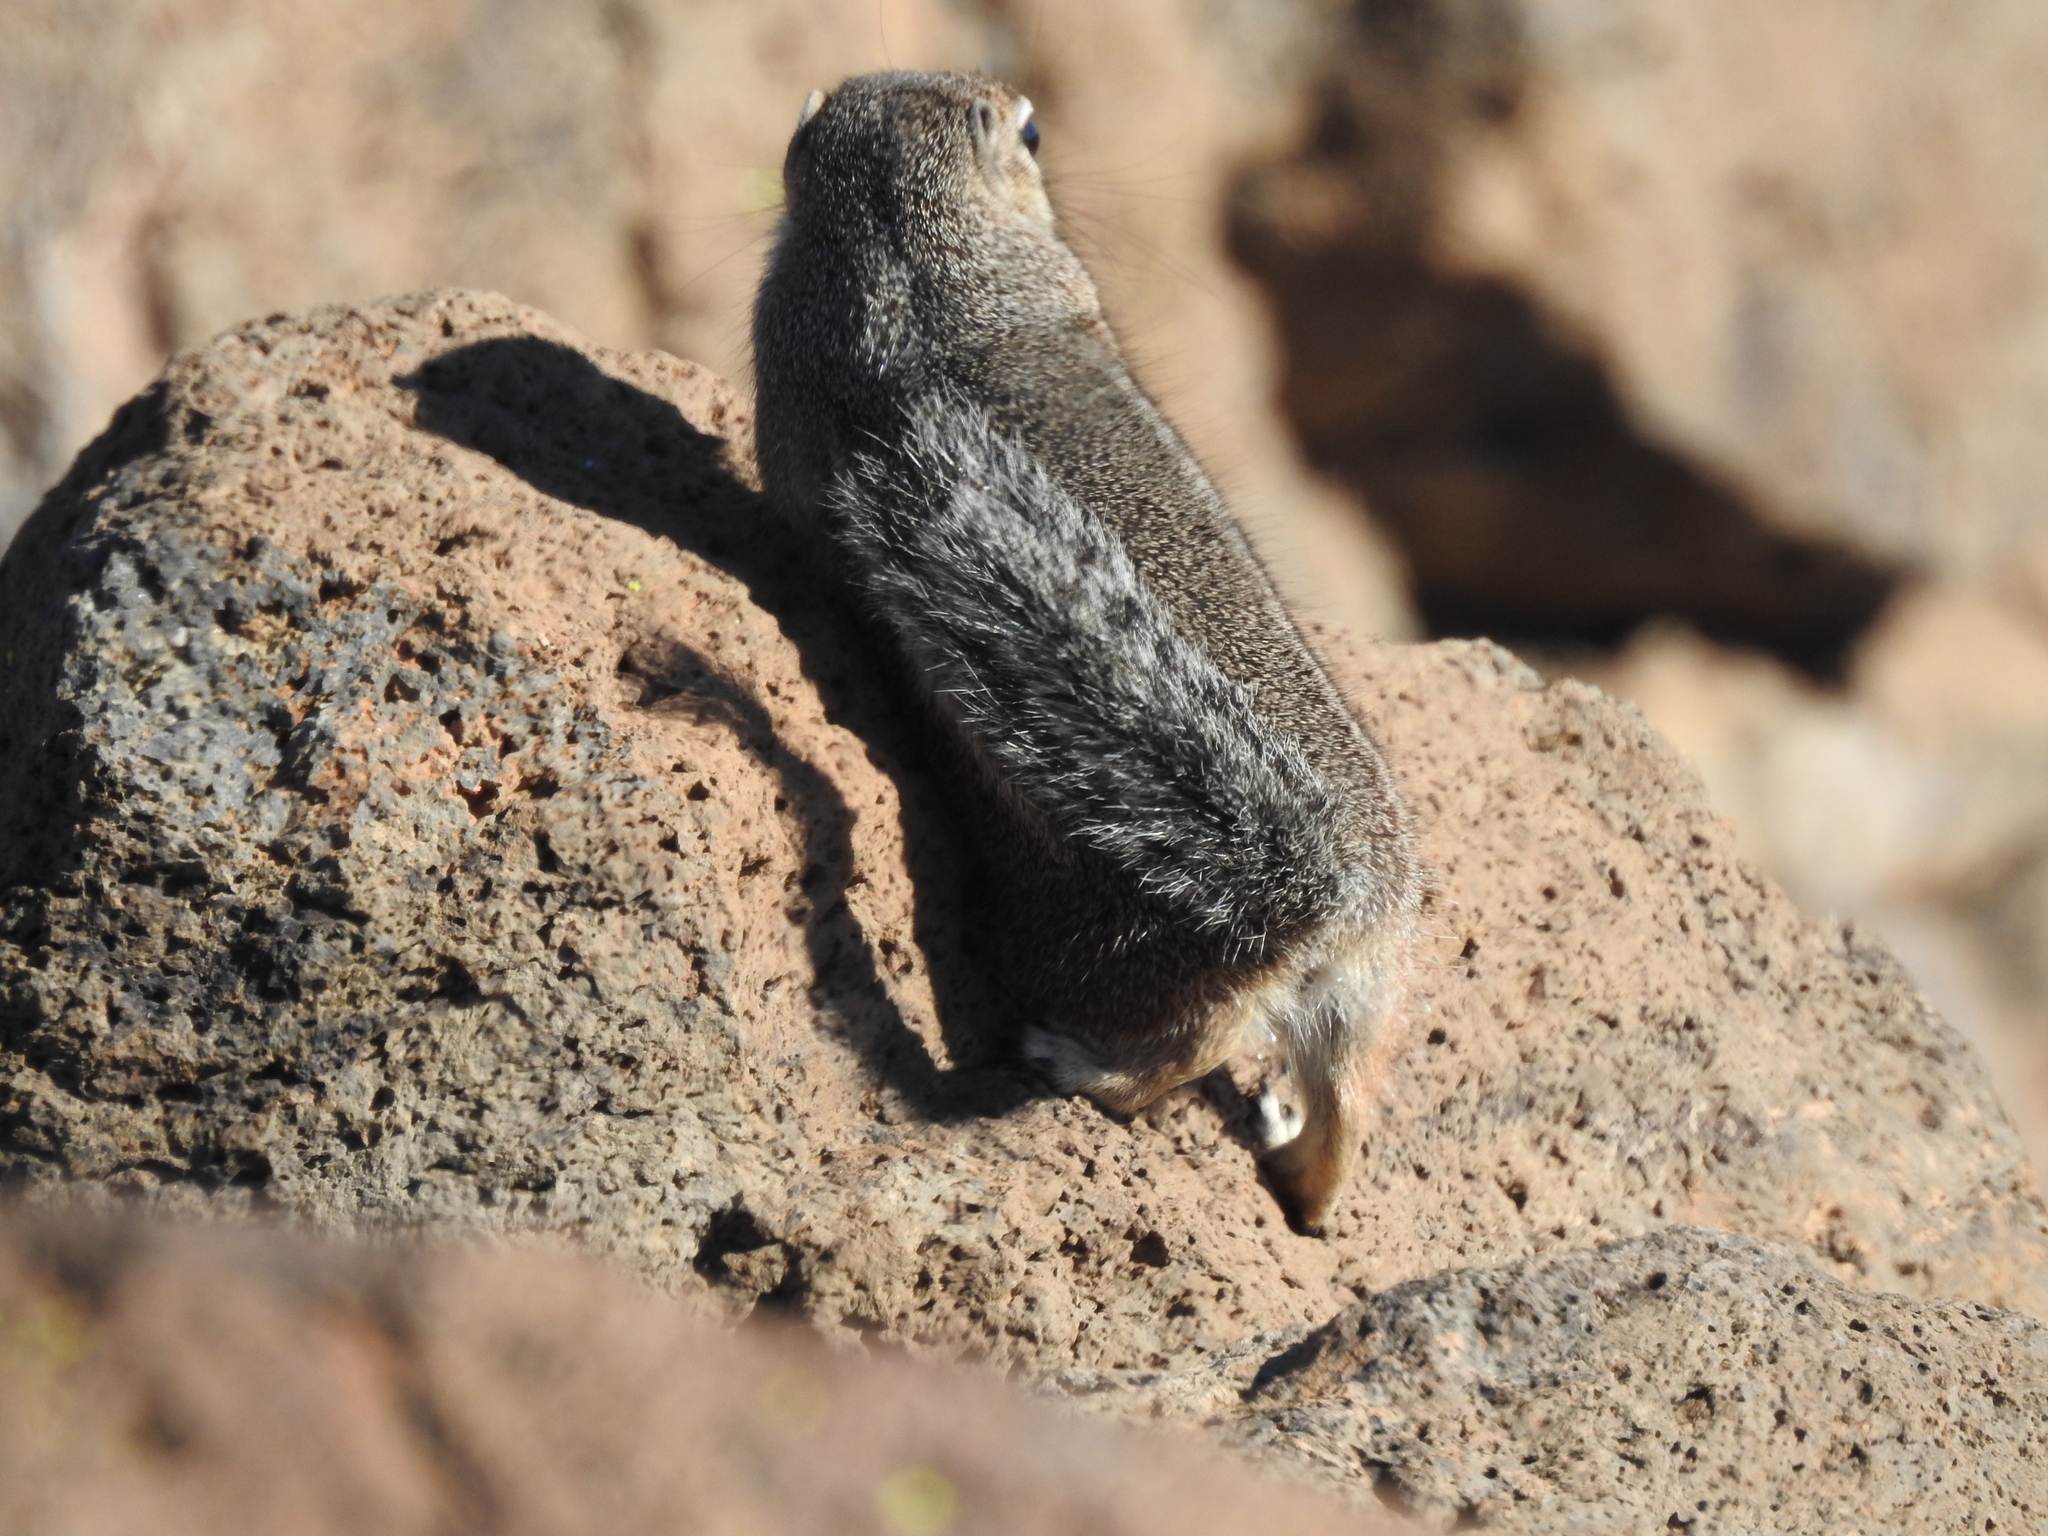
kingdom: Animalia
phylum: Chordata
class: Mammalia
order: Rodentia
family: Sciuridae
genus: Ammospermophilus
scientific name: Ammospermophilus harrisii
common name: Harris's antelope squirrel
